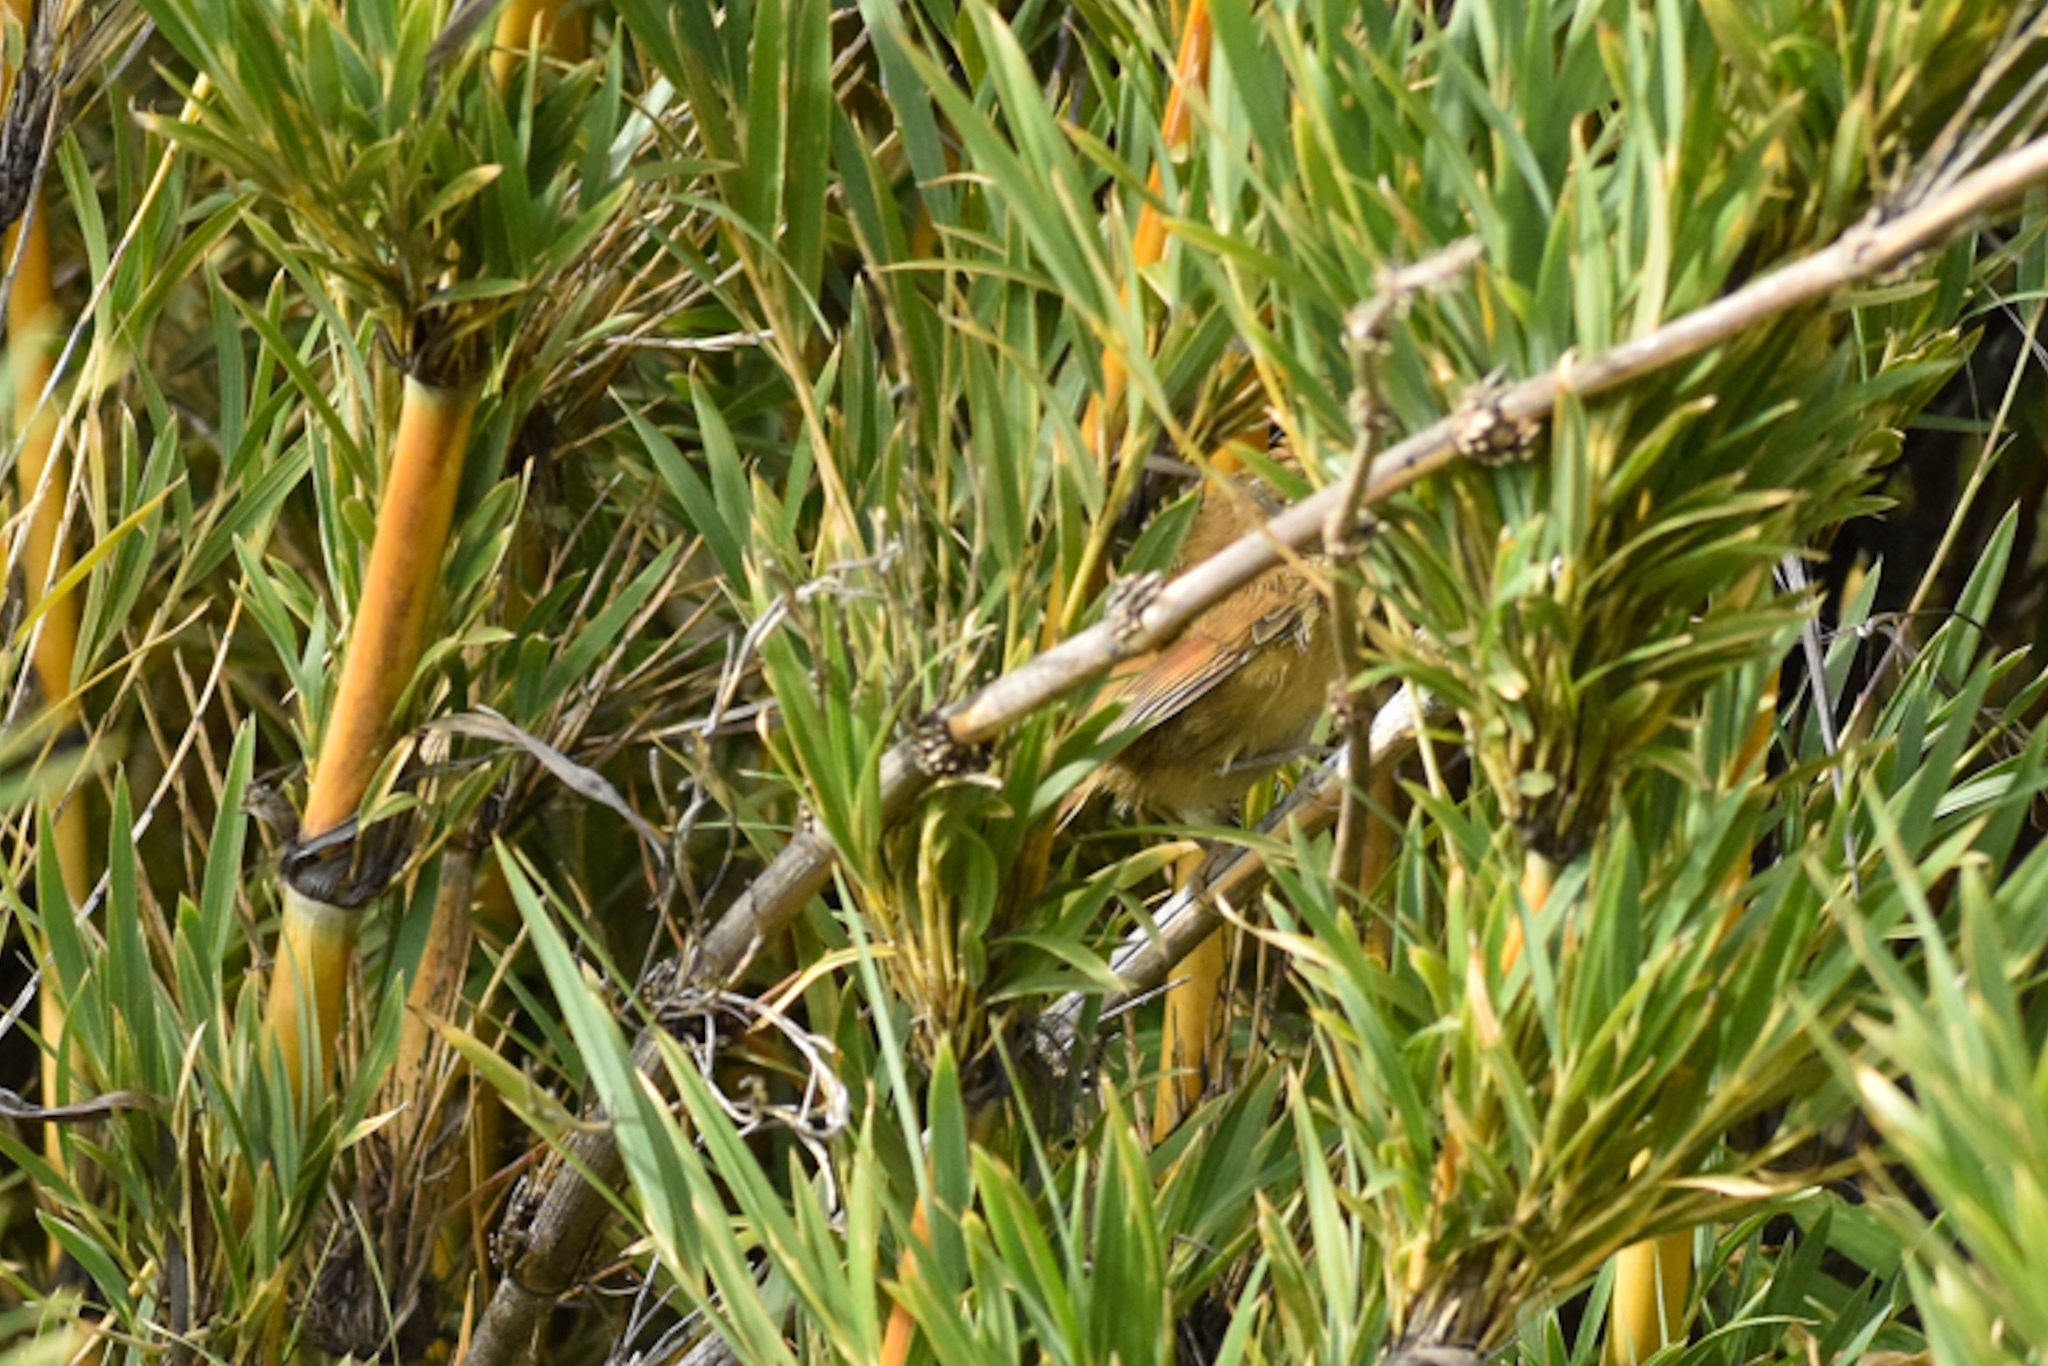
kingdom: Animalia
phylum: Chordata
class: Aves
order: Passeriformes
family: Furnariidae
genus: Sylviorthorhynchus
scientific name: Sylviorthorhynchus desmursii
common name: Des murs's wiretail
